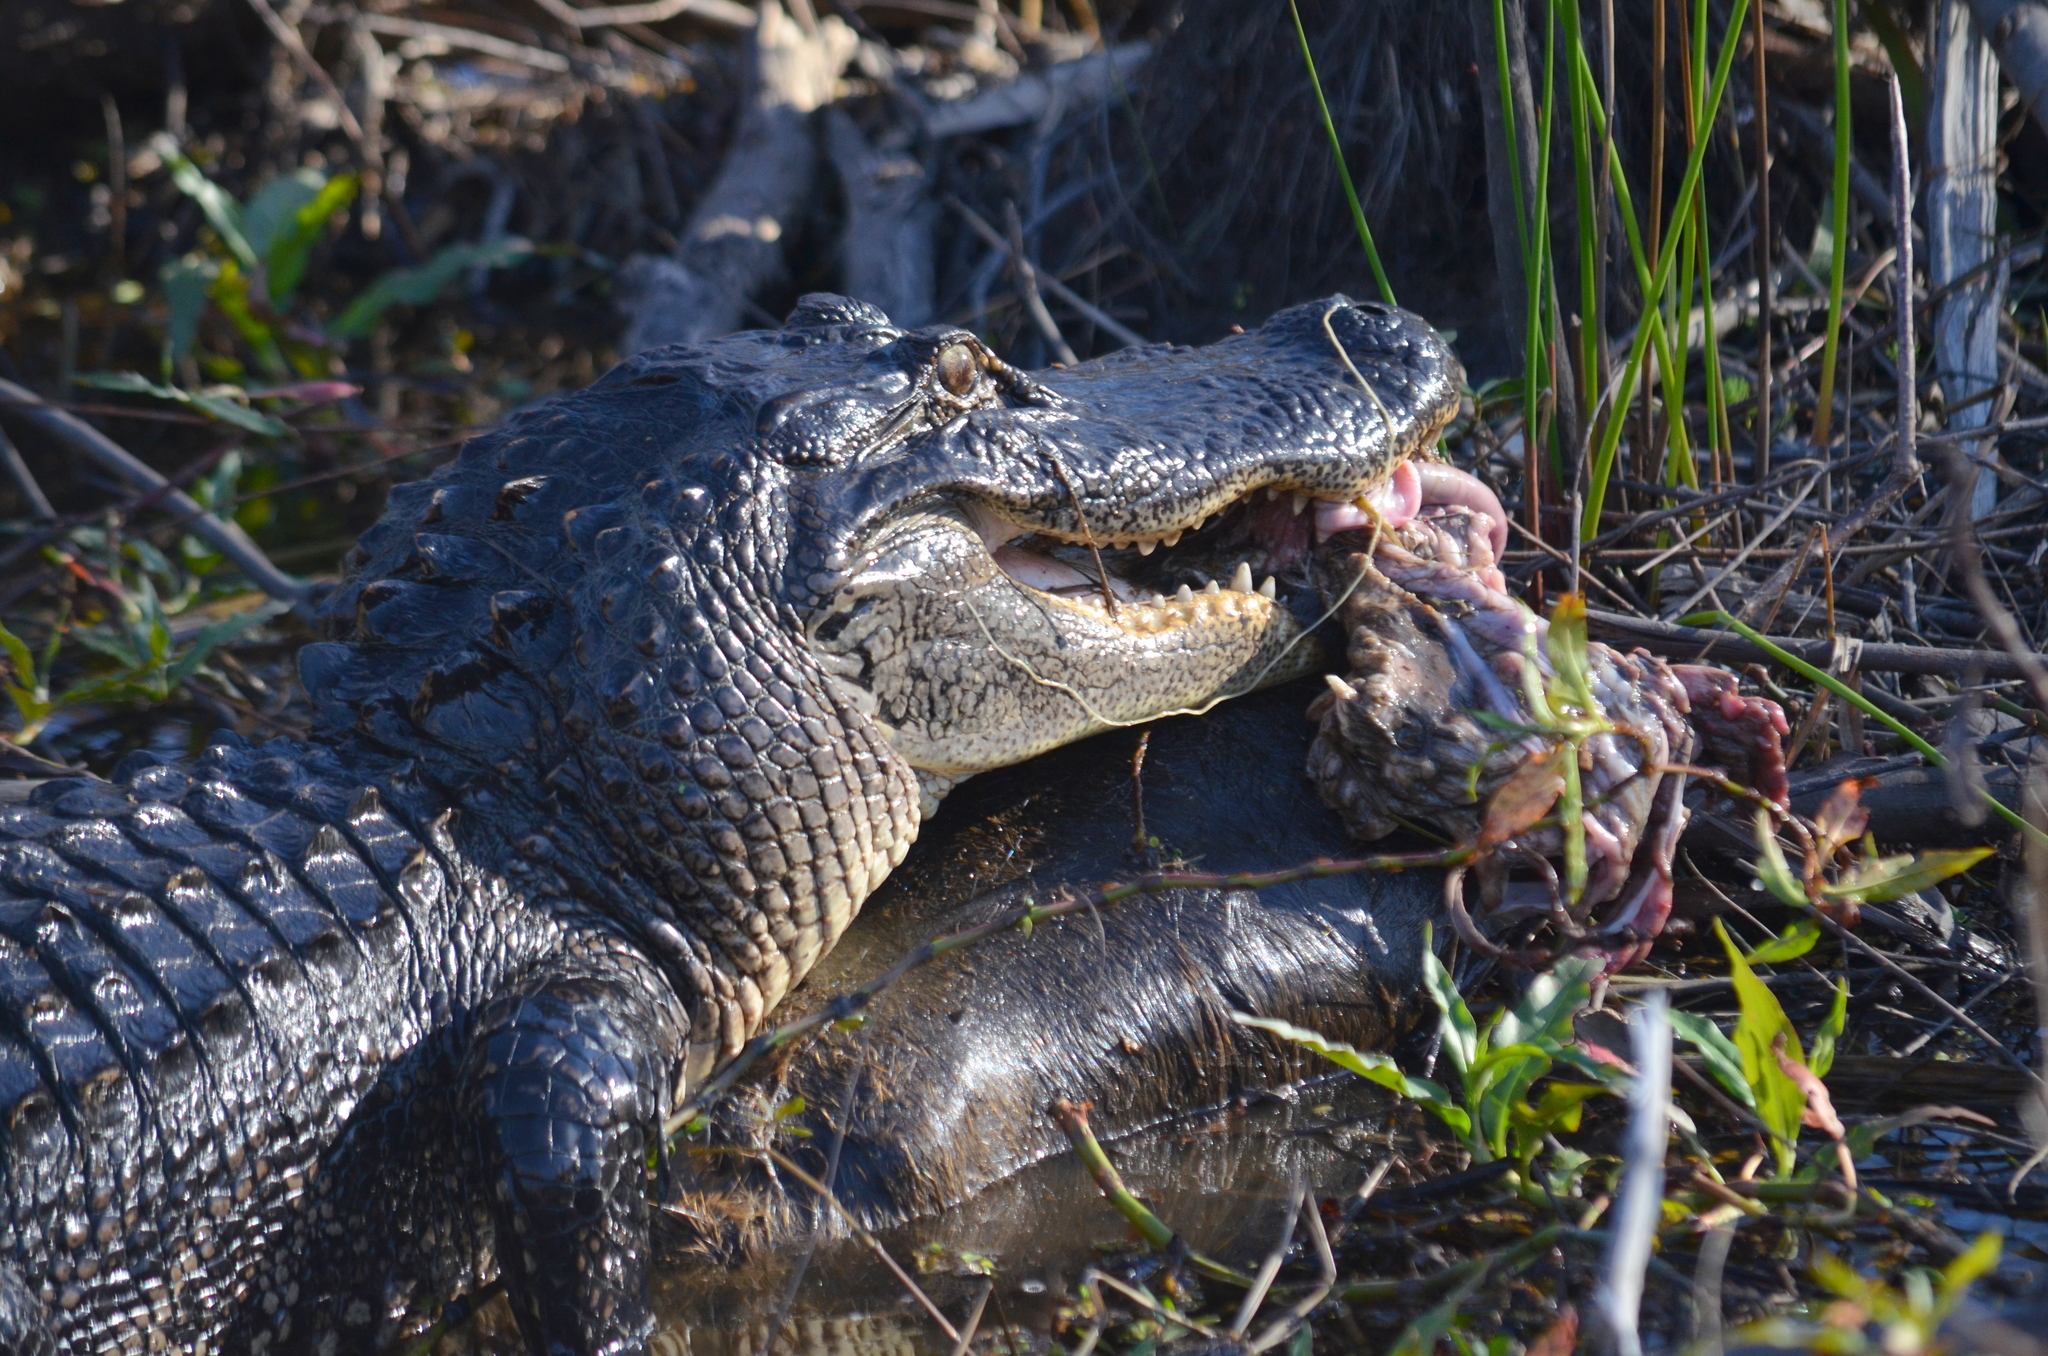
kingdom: Animalia
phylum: Chordata
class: Crocodylia
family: Alligatoridae
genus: Alligator
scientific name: Alligator mississippiensis
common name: American alligator
